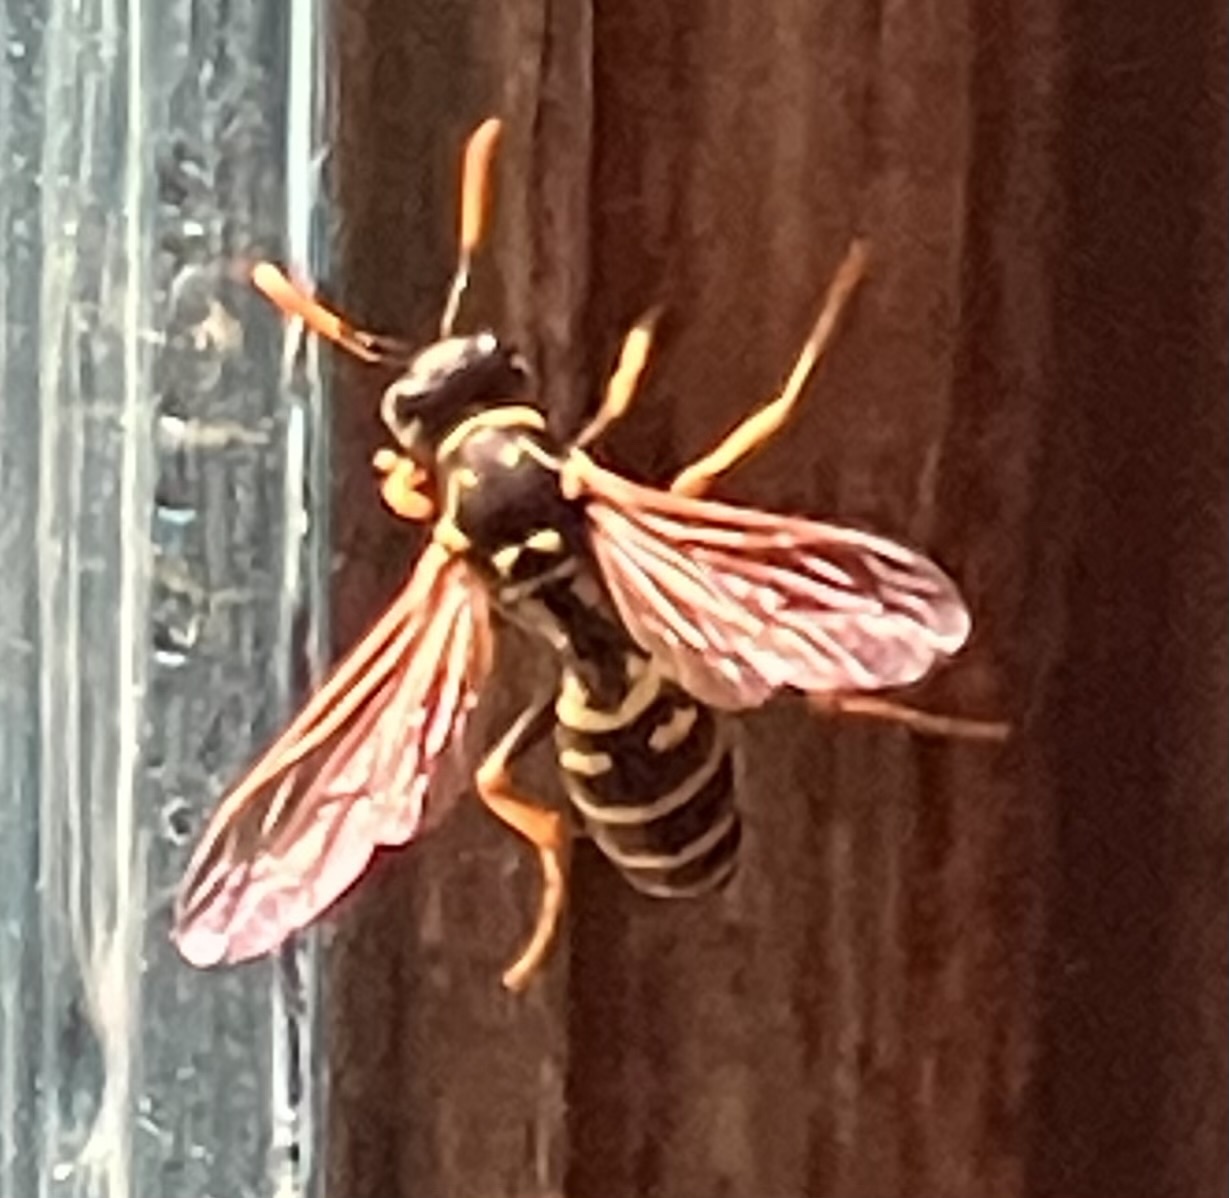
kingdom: Animalia
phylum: Arthropoda
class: Insecta
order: Hymenoptera
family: Eumenidae
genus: Polistes
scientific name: Polistes dominula
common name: Paper wasp
